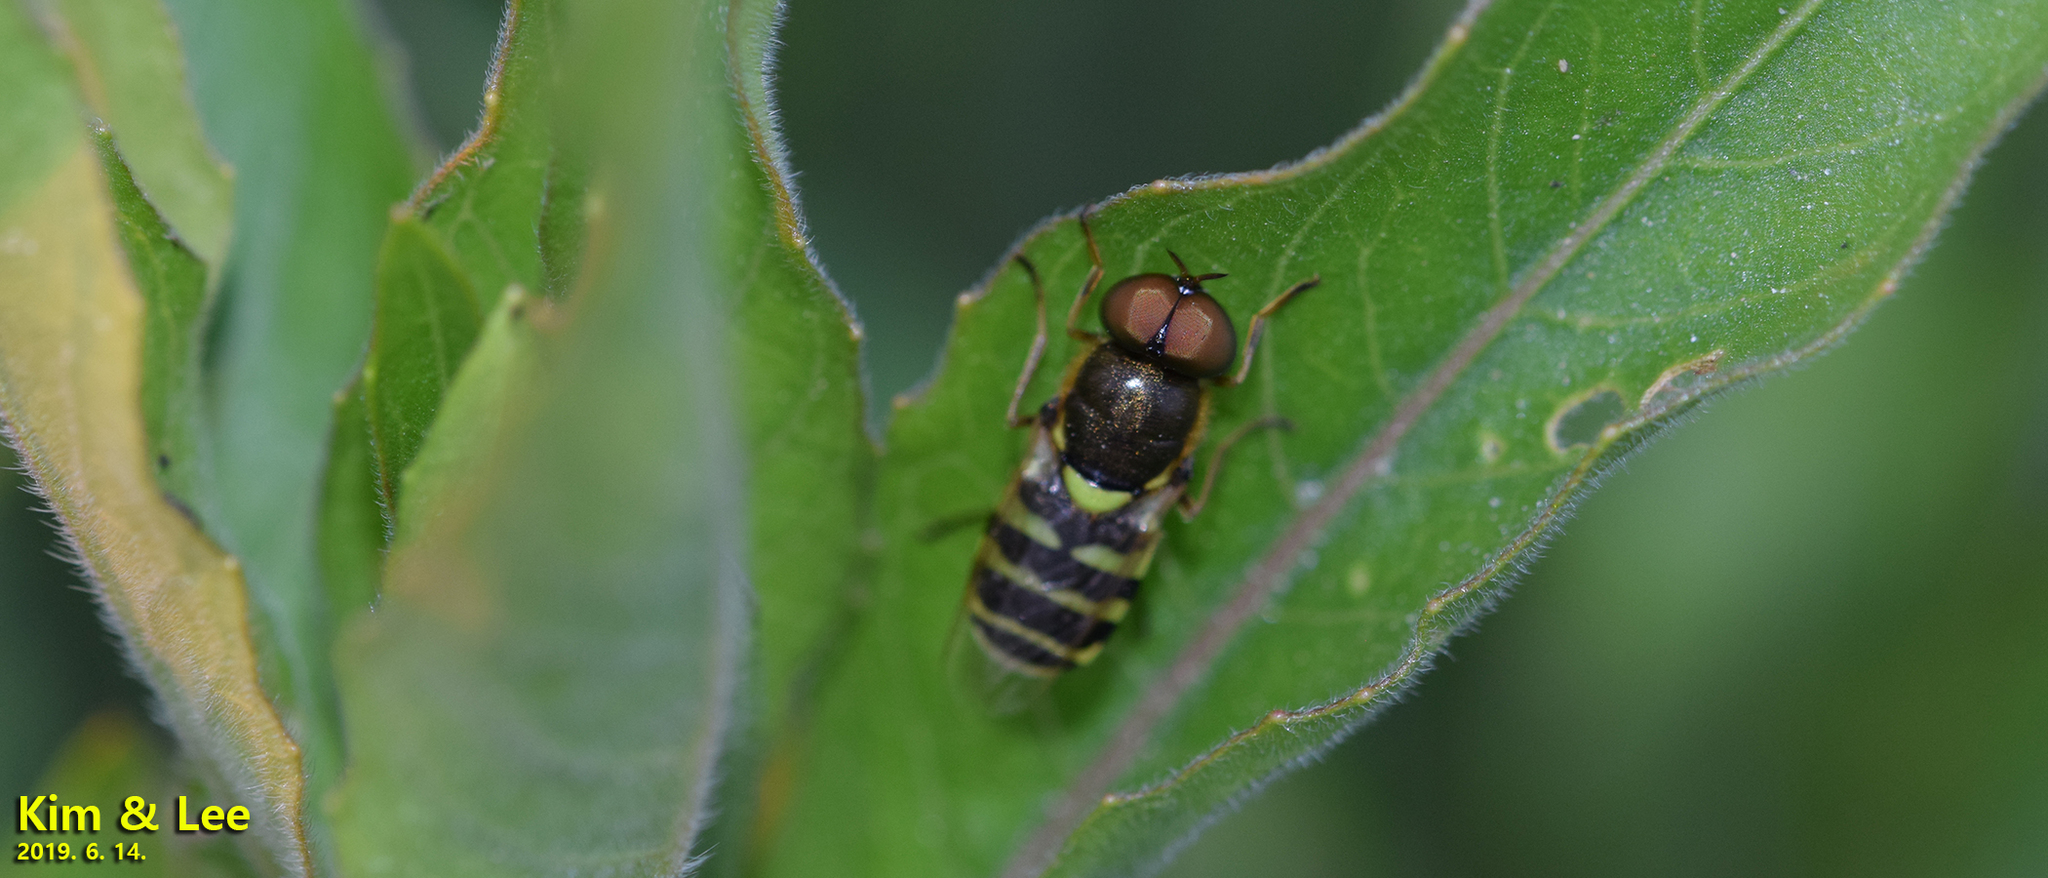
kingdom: Animalia
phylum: Arthropoda
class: Insecta
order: Diptera
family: Stratiomyidae
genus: Odontomyia
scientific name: Odontomyia garatas
